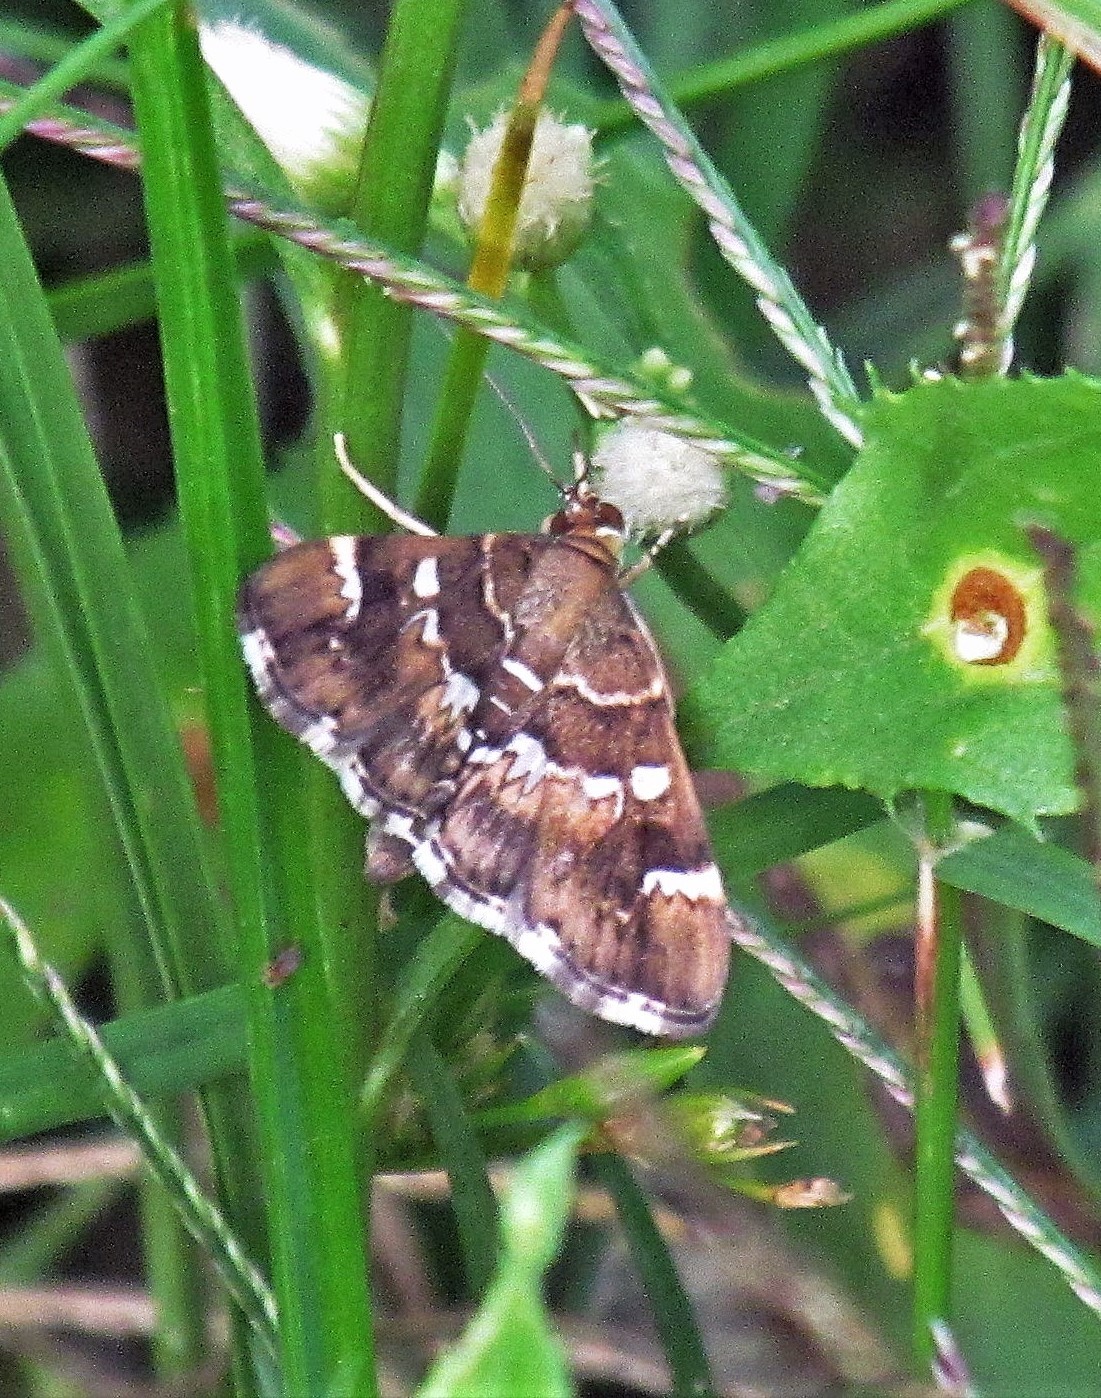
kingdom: Animalia
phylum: Arthropoda
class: Insecta
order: Lepidoptera
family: Crambidae
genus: Hymenia
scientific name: Hymenia perspectalis
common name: Spotted beet webworm
